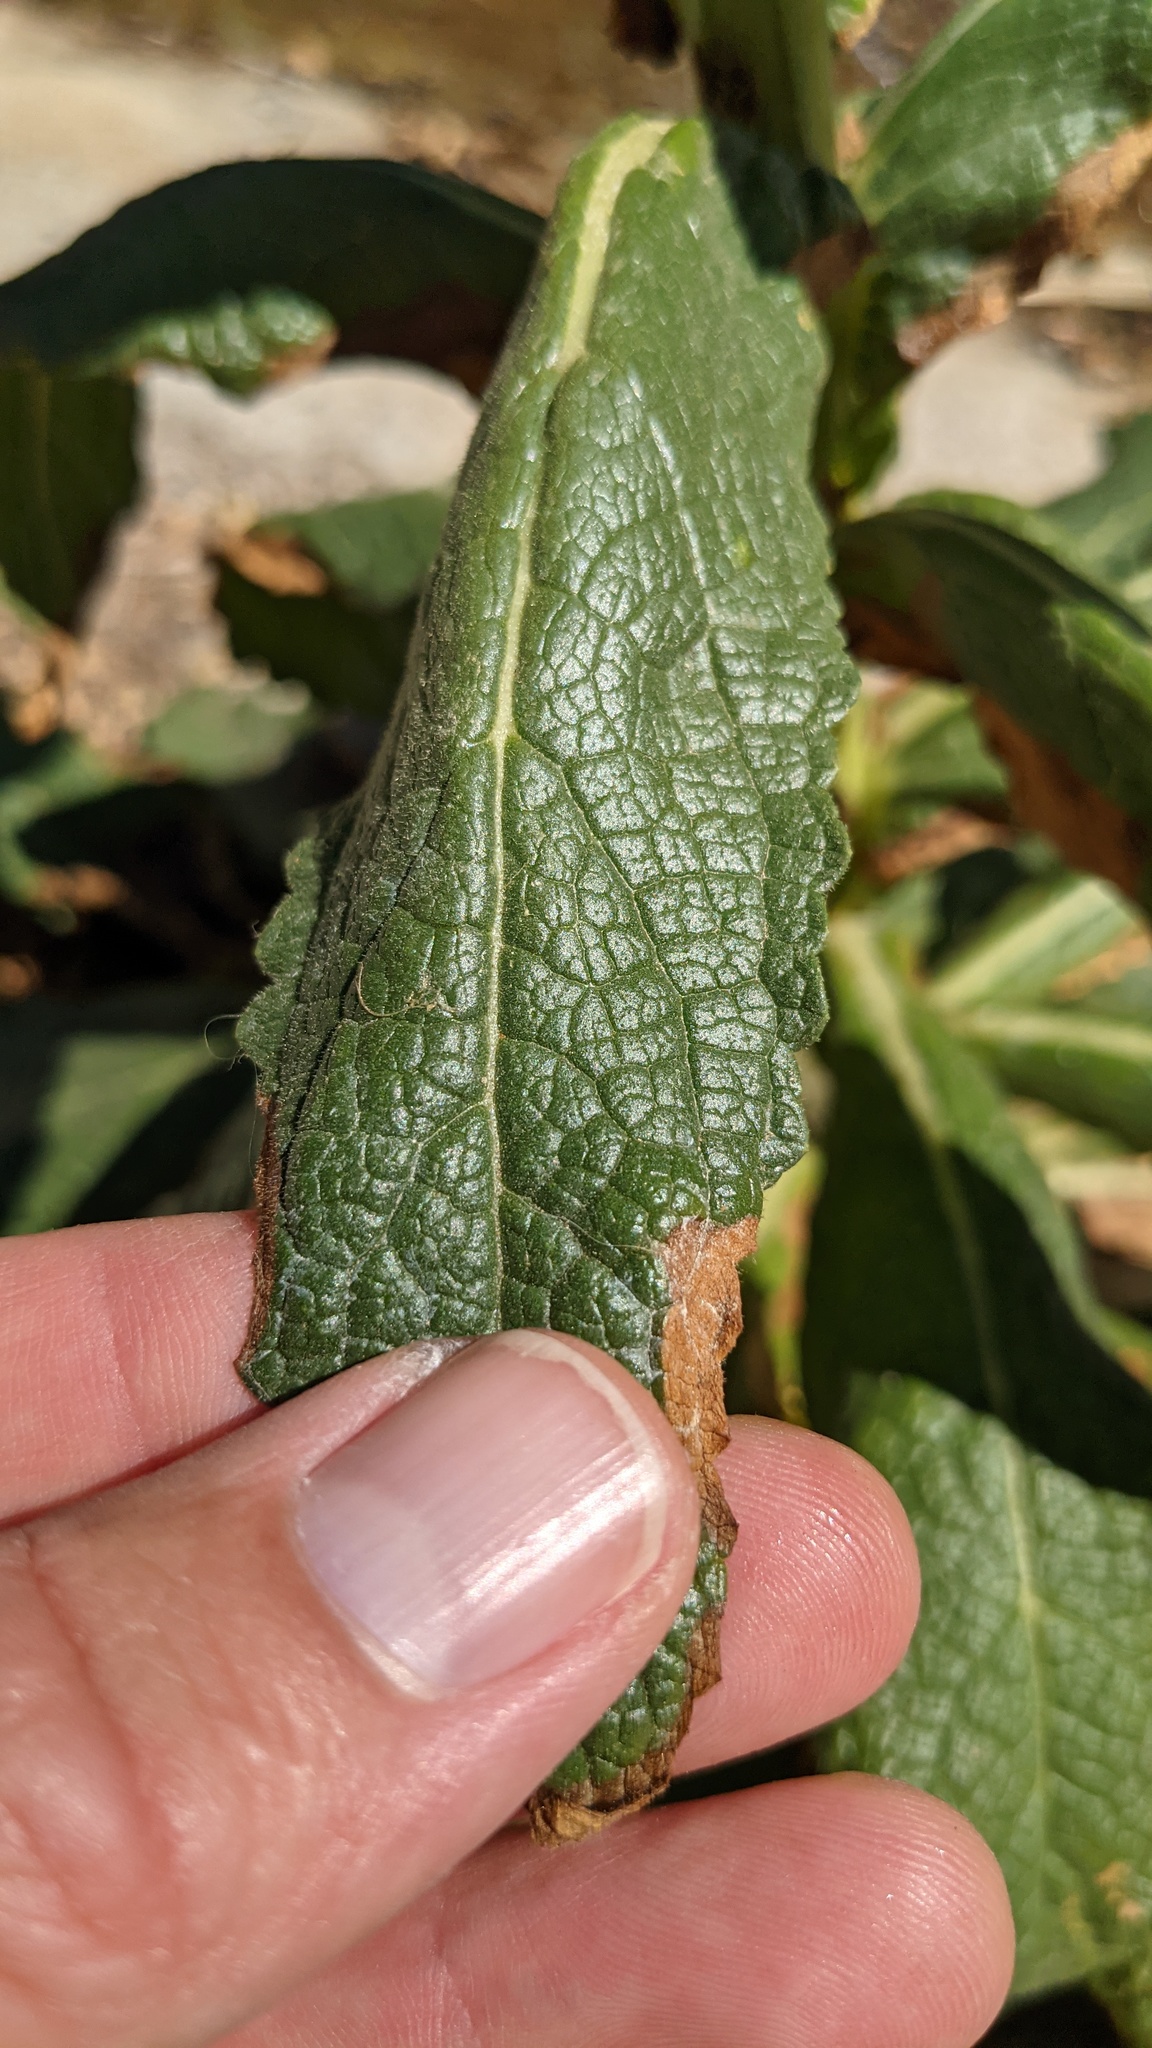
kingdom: Plantae
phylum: Tracheophyta
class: Magnoliopsida
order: Lamiales
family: Scrophulariaceae
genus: Verbascum
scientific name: Verbascum virgatum
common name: Twiggy mullein
